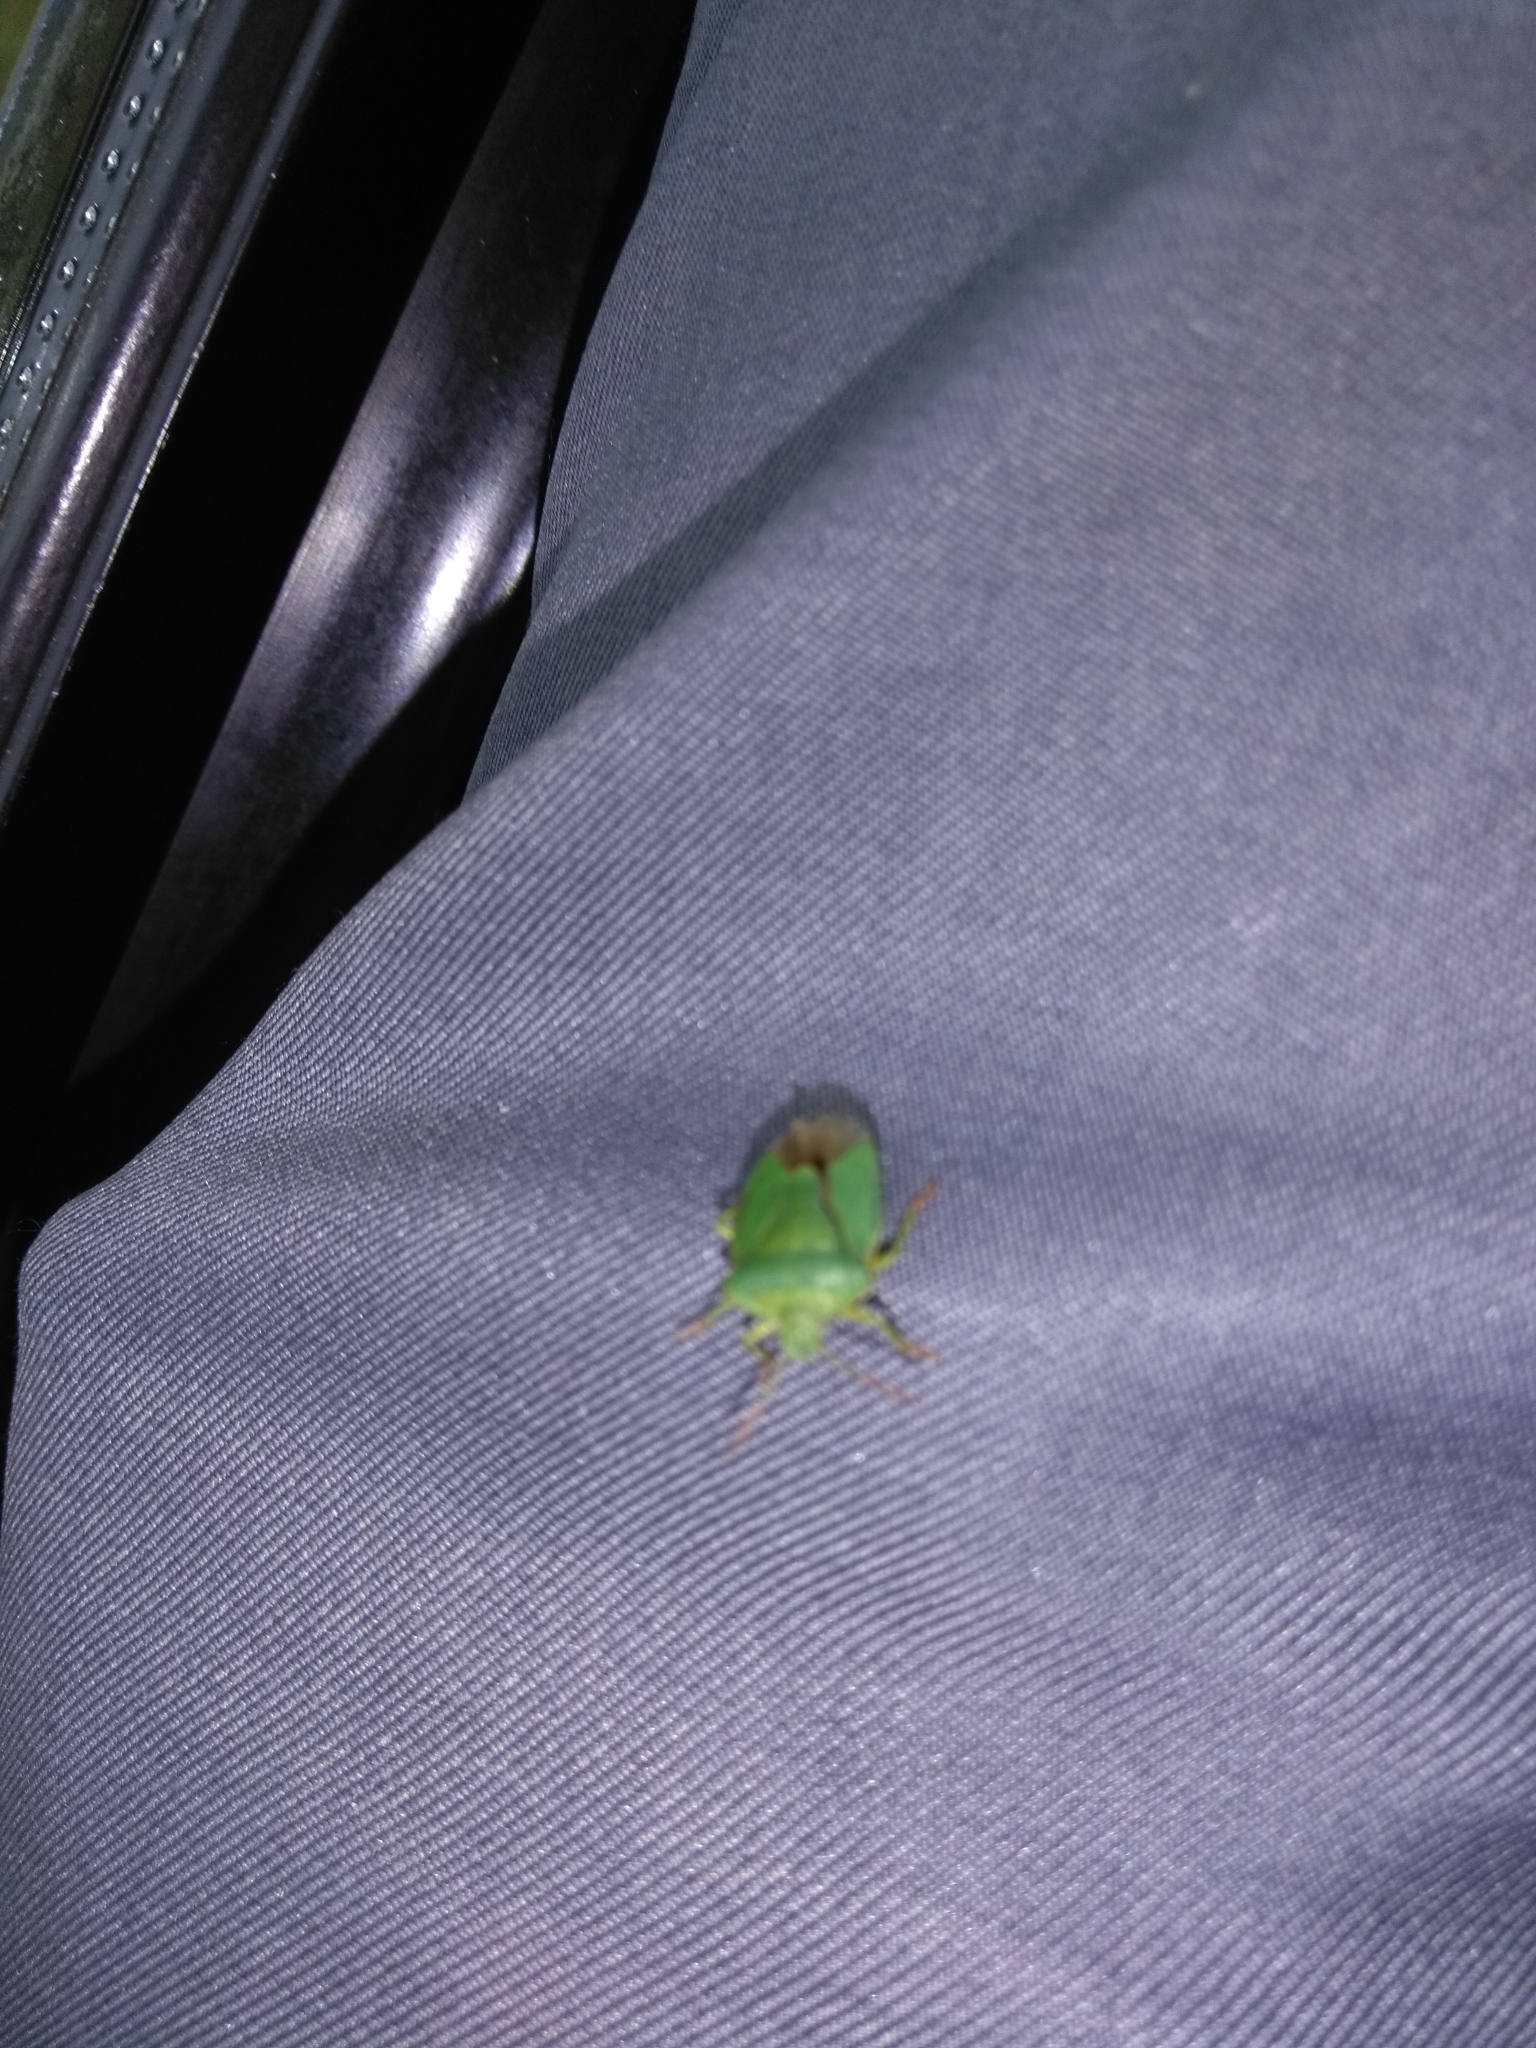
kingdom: Animalia
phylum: Arthropoda
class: Insecta
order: Hemiptera
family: Pentatomidae
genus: Palomena
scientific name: Palomena prasina
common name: Green shieldbug
